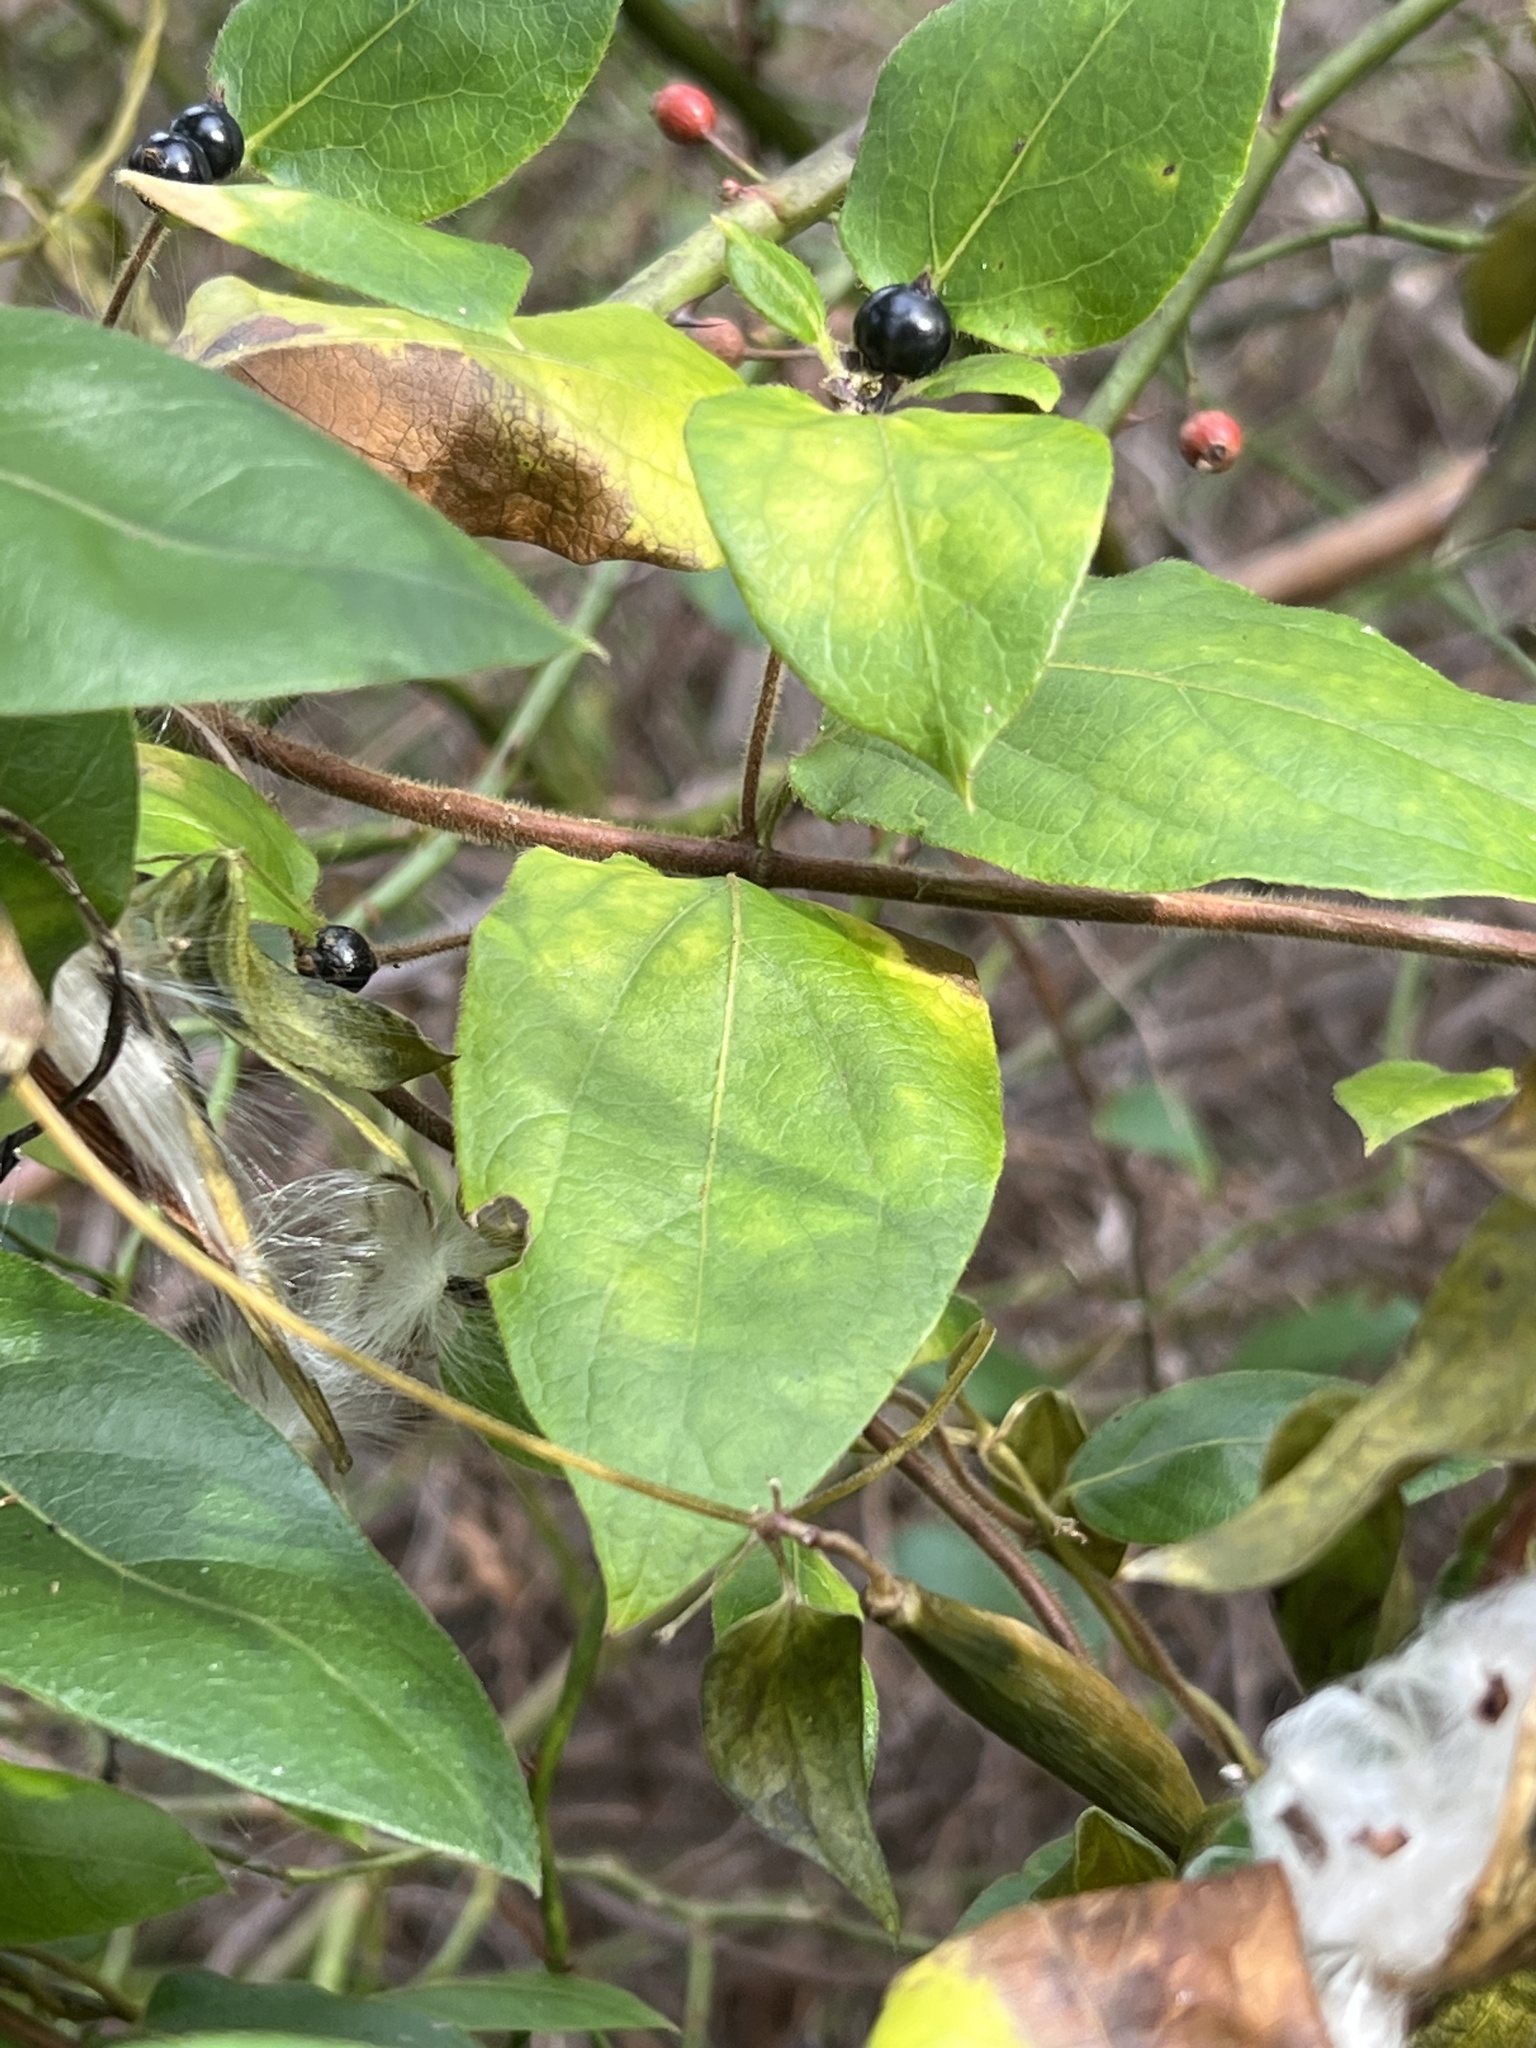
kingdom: Plantae
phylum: Tracheophyta
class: Magnoliopsida
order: Dipsacales
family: Caprifoliaceae
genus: Lonicera
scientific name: Lonicera japonica
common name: Japanese honeysuckle
